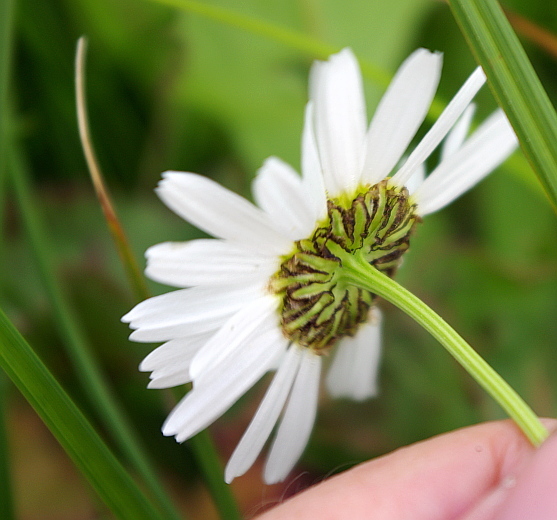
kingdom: Plantae
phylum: Tracheophyta
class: Magnoliopsida
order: Asterales
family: Asteraceae
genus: Tripleurospermum
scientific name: Tripleurospermum maritimum
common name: Sea mayweed
